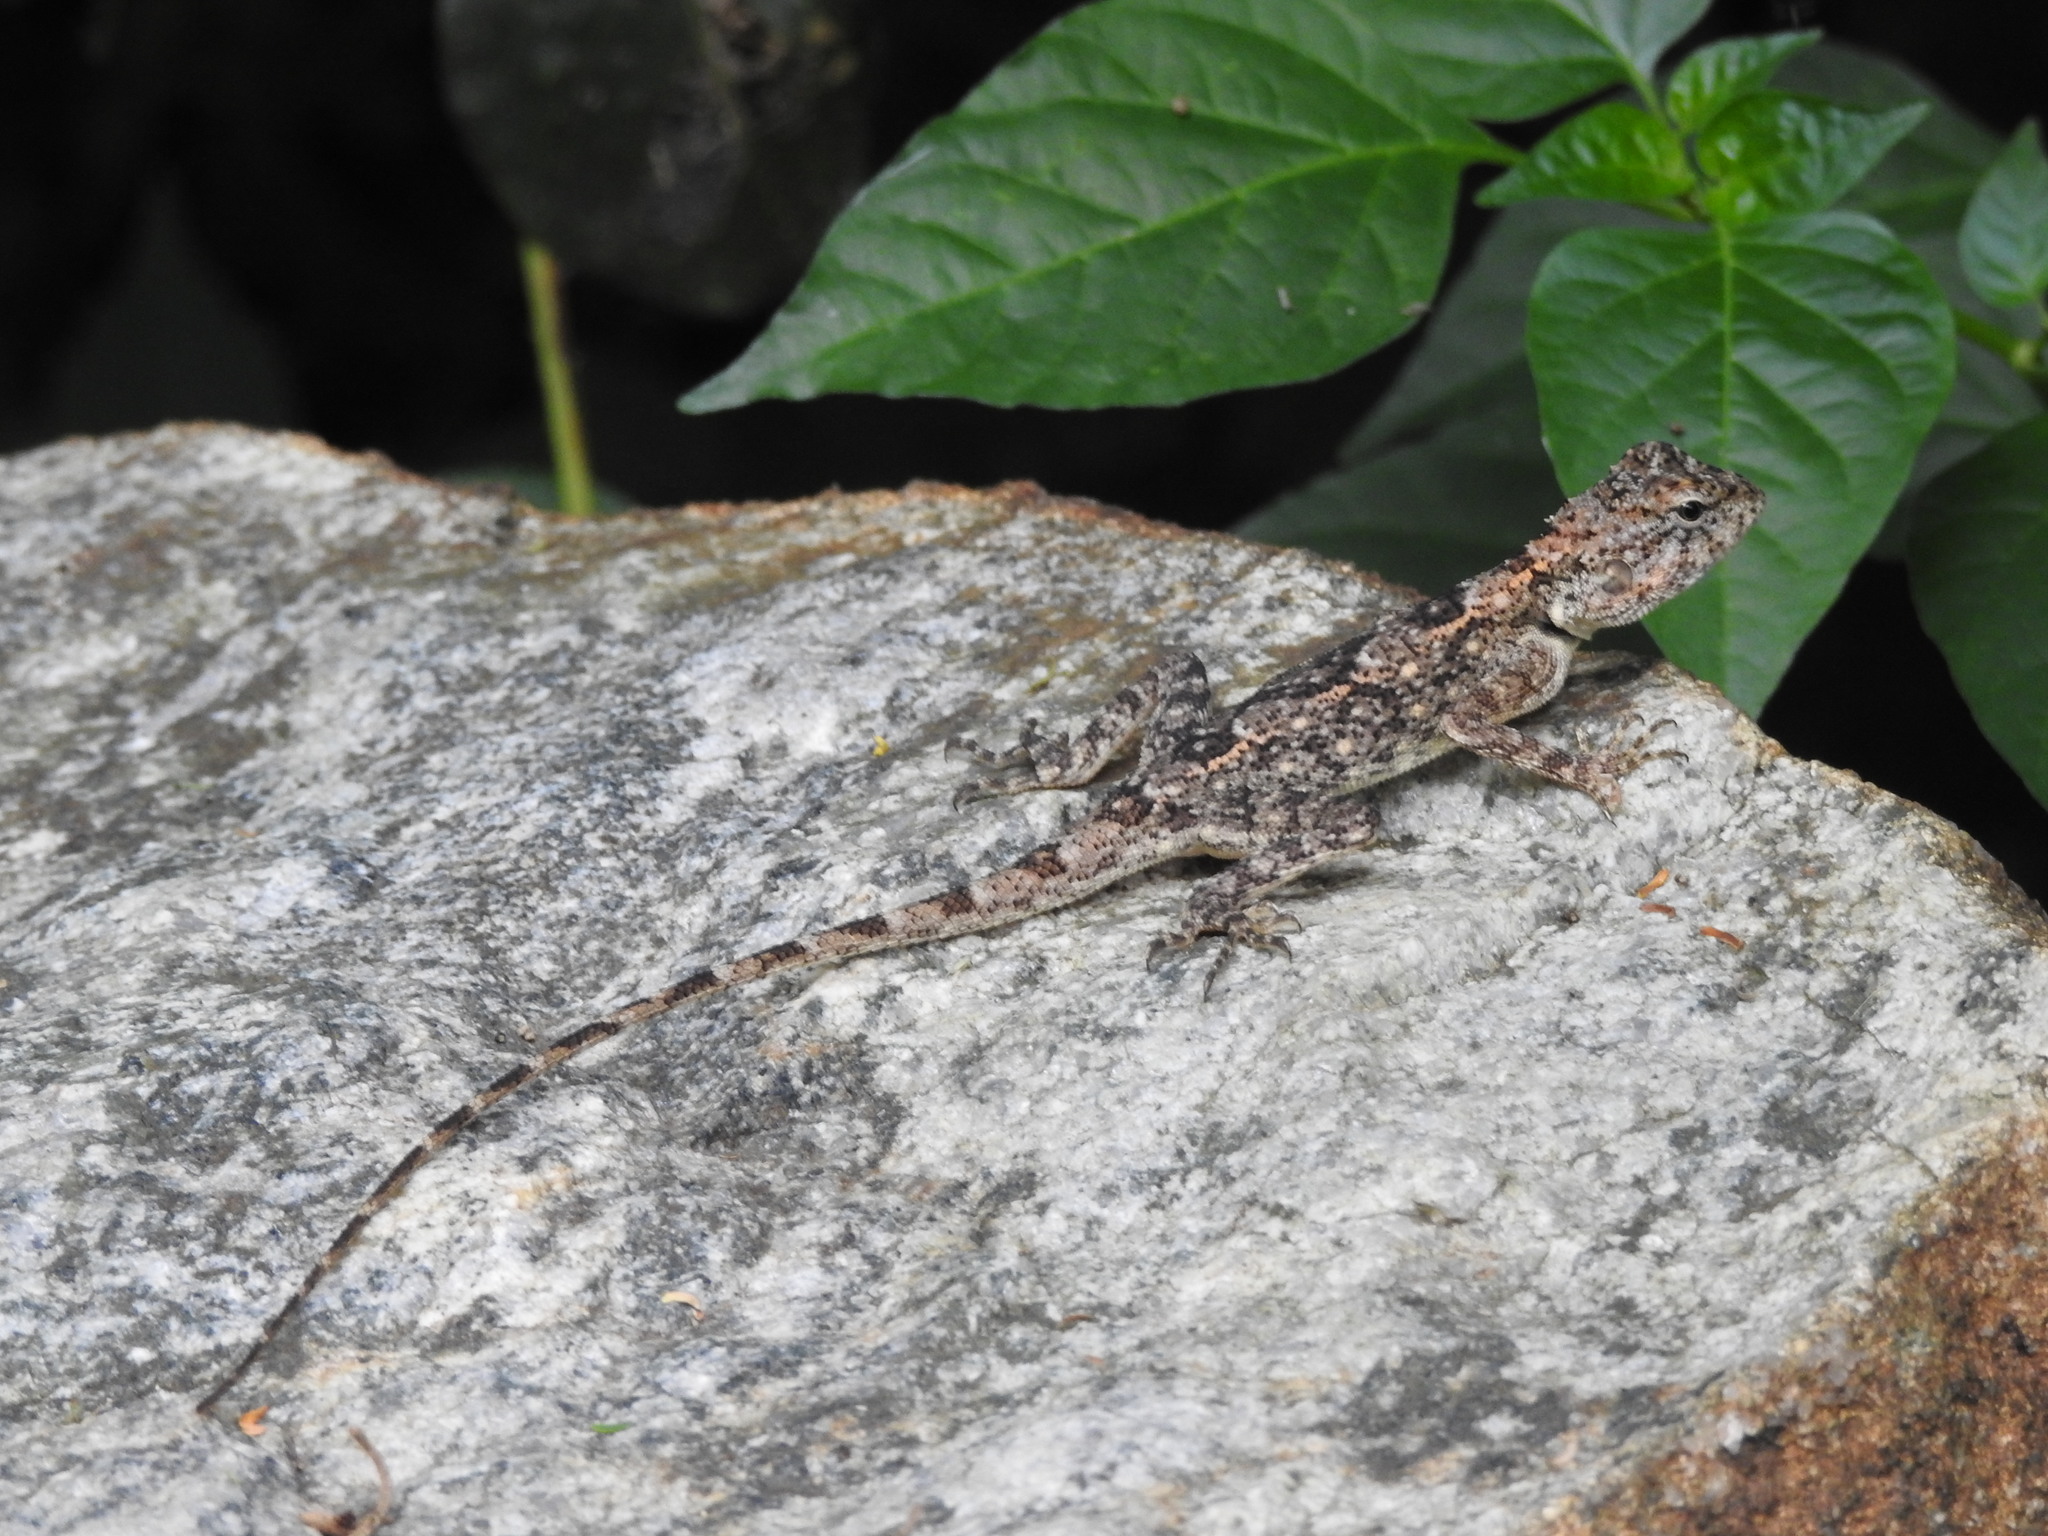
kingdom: Animalia
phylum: Chordata
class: Squamata
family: Agamidae
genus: Psammophilus
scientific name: Psammophilus dorsalis
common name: South indian rock agama
